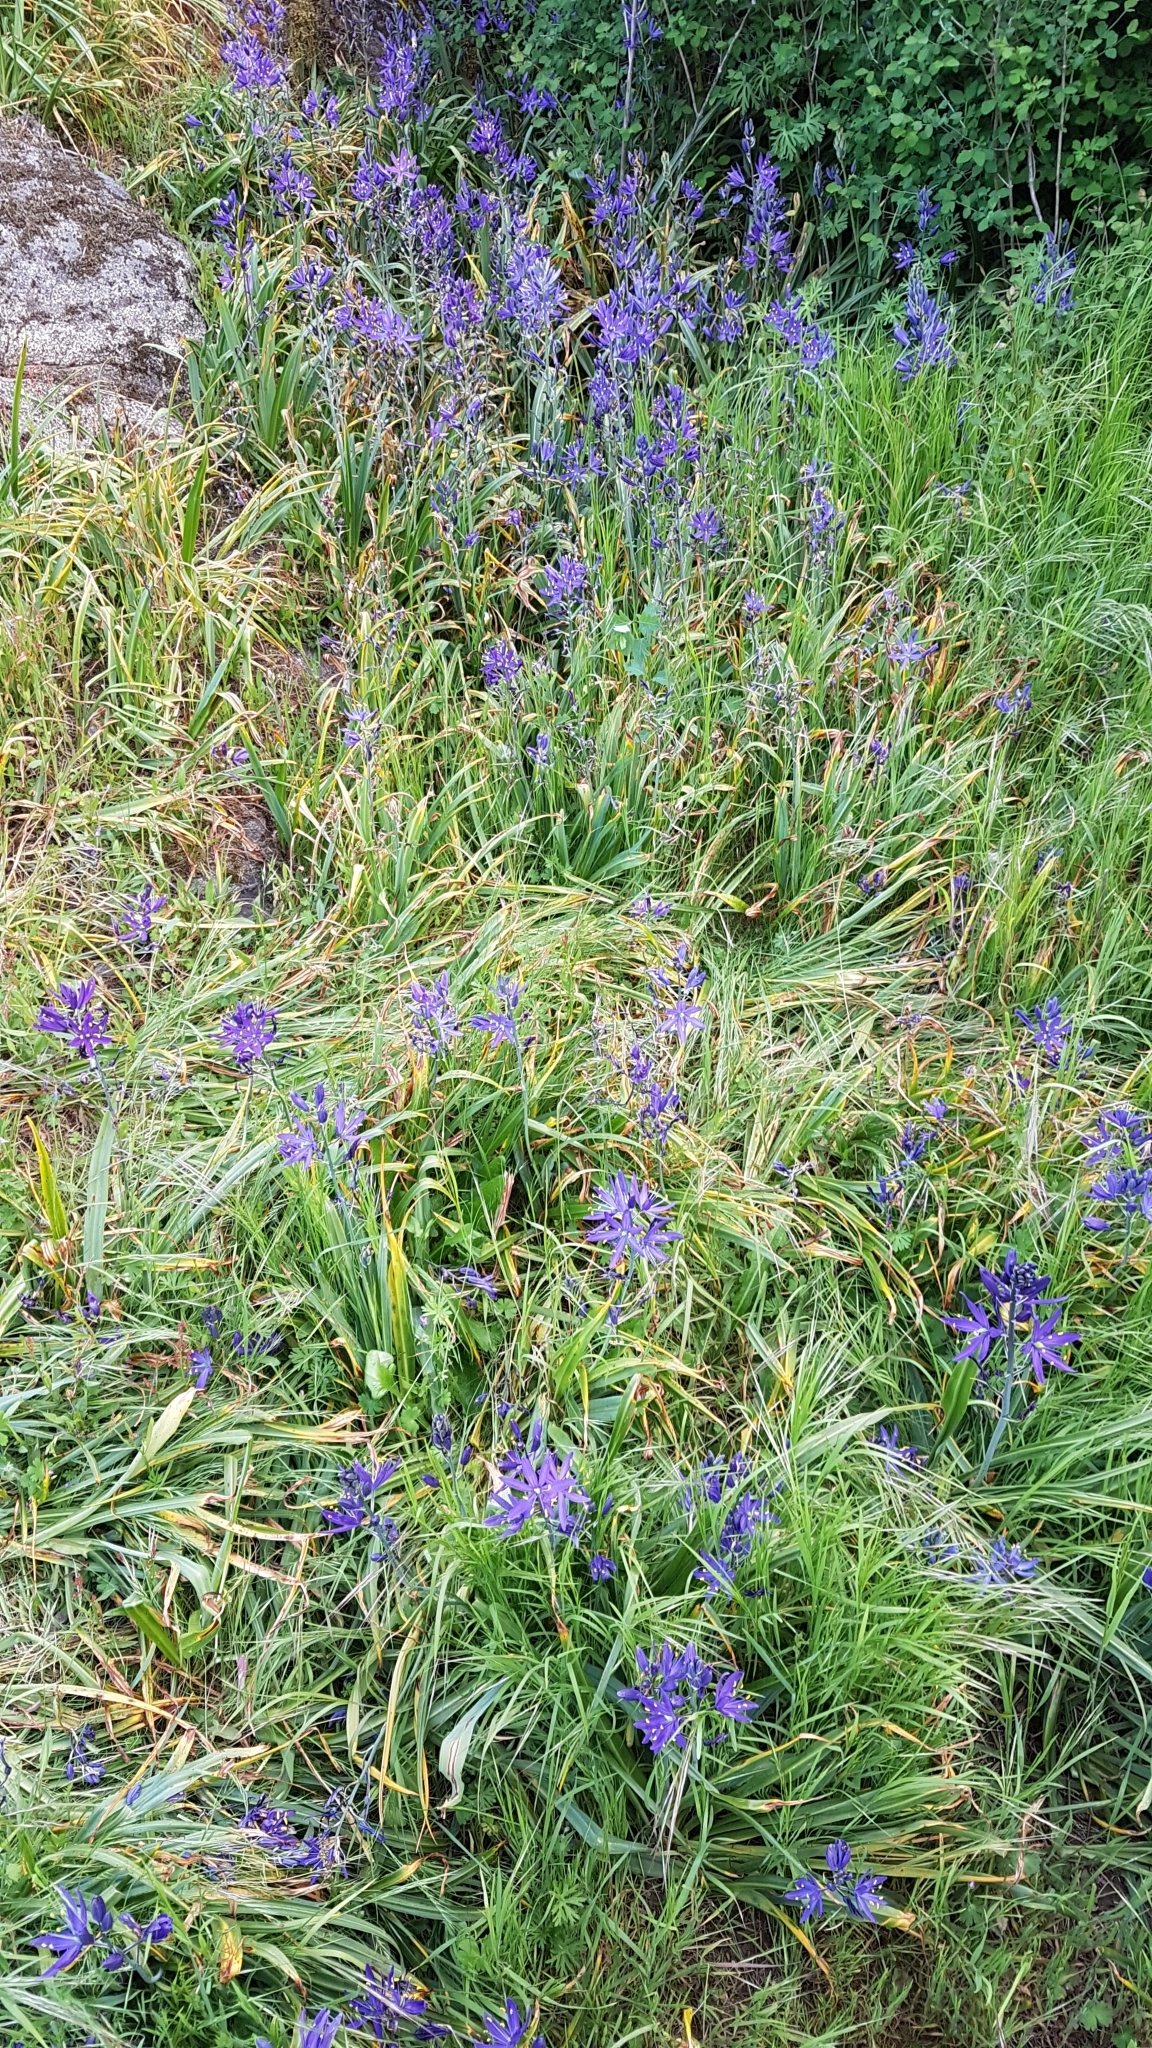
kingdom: Plantae
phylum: Tracheophyta
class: Liliopsida
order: Asparagales
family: Asparagaceae
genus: Camassia
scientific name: Camassia leichtlinii
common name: Leichtlin's camas
